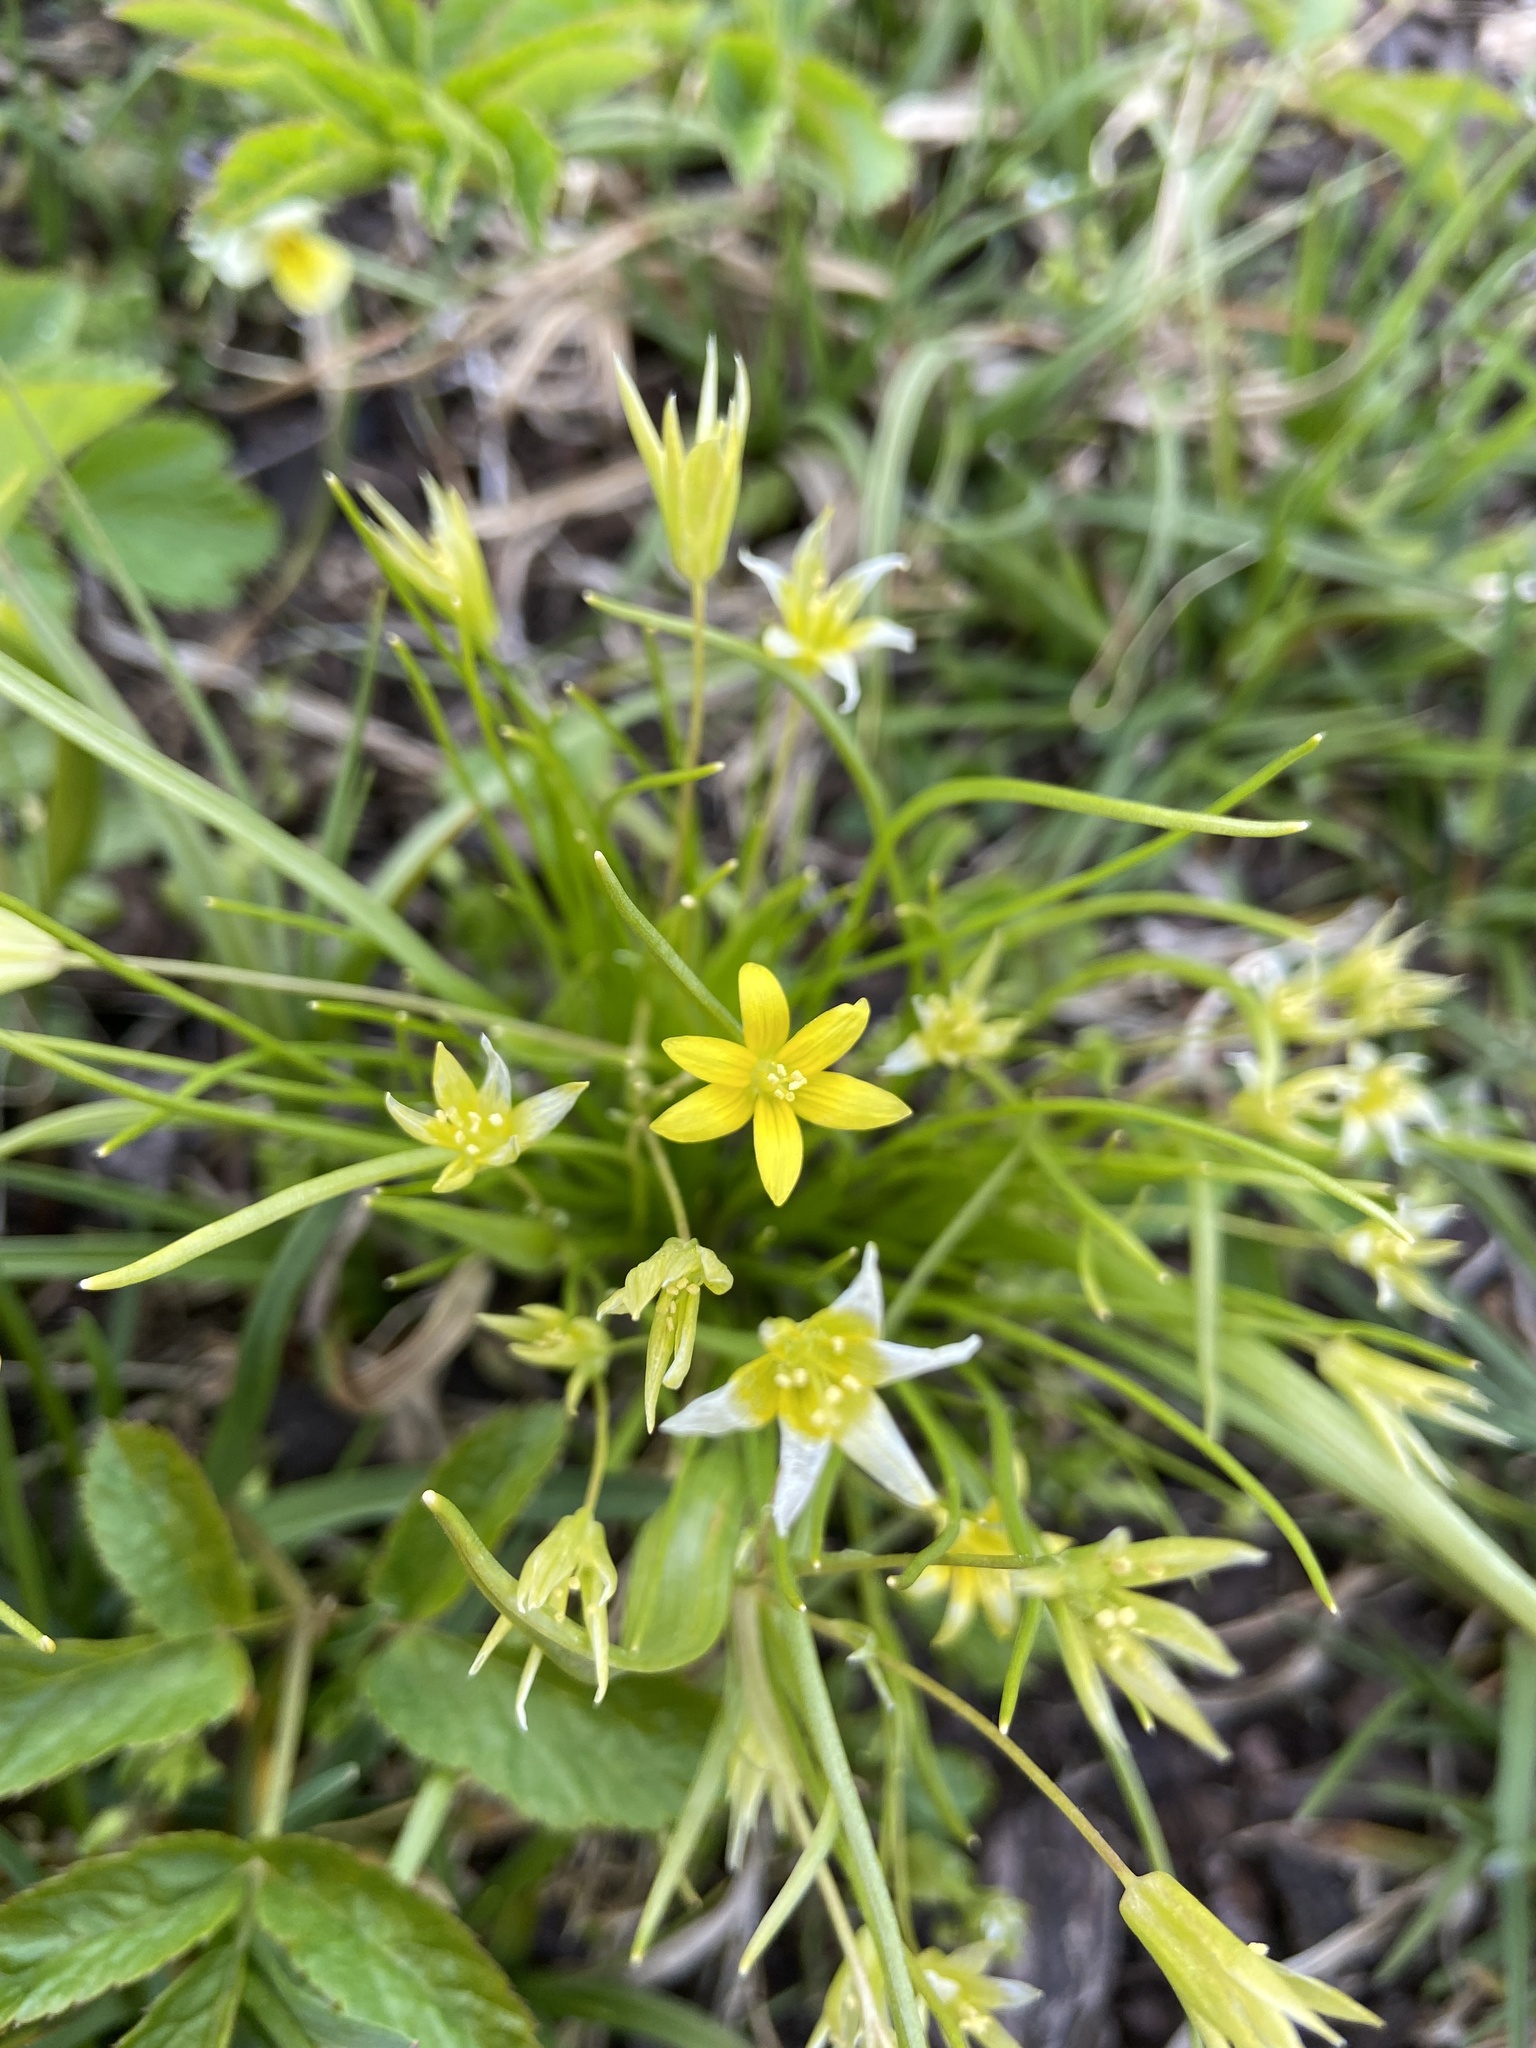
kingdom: Plantae
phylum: Tracheophyta
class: Liliopsida
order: Liliales
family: Liliaceae
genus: Gagea
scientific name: Gagea minima
